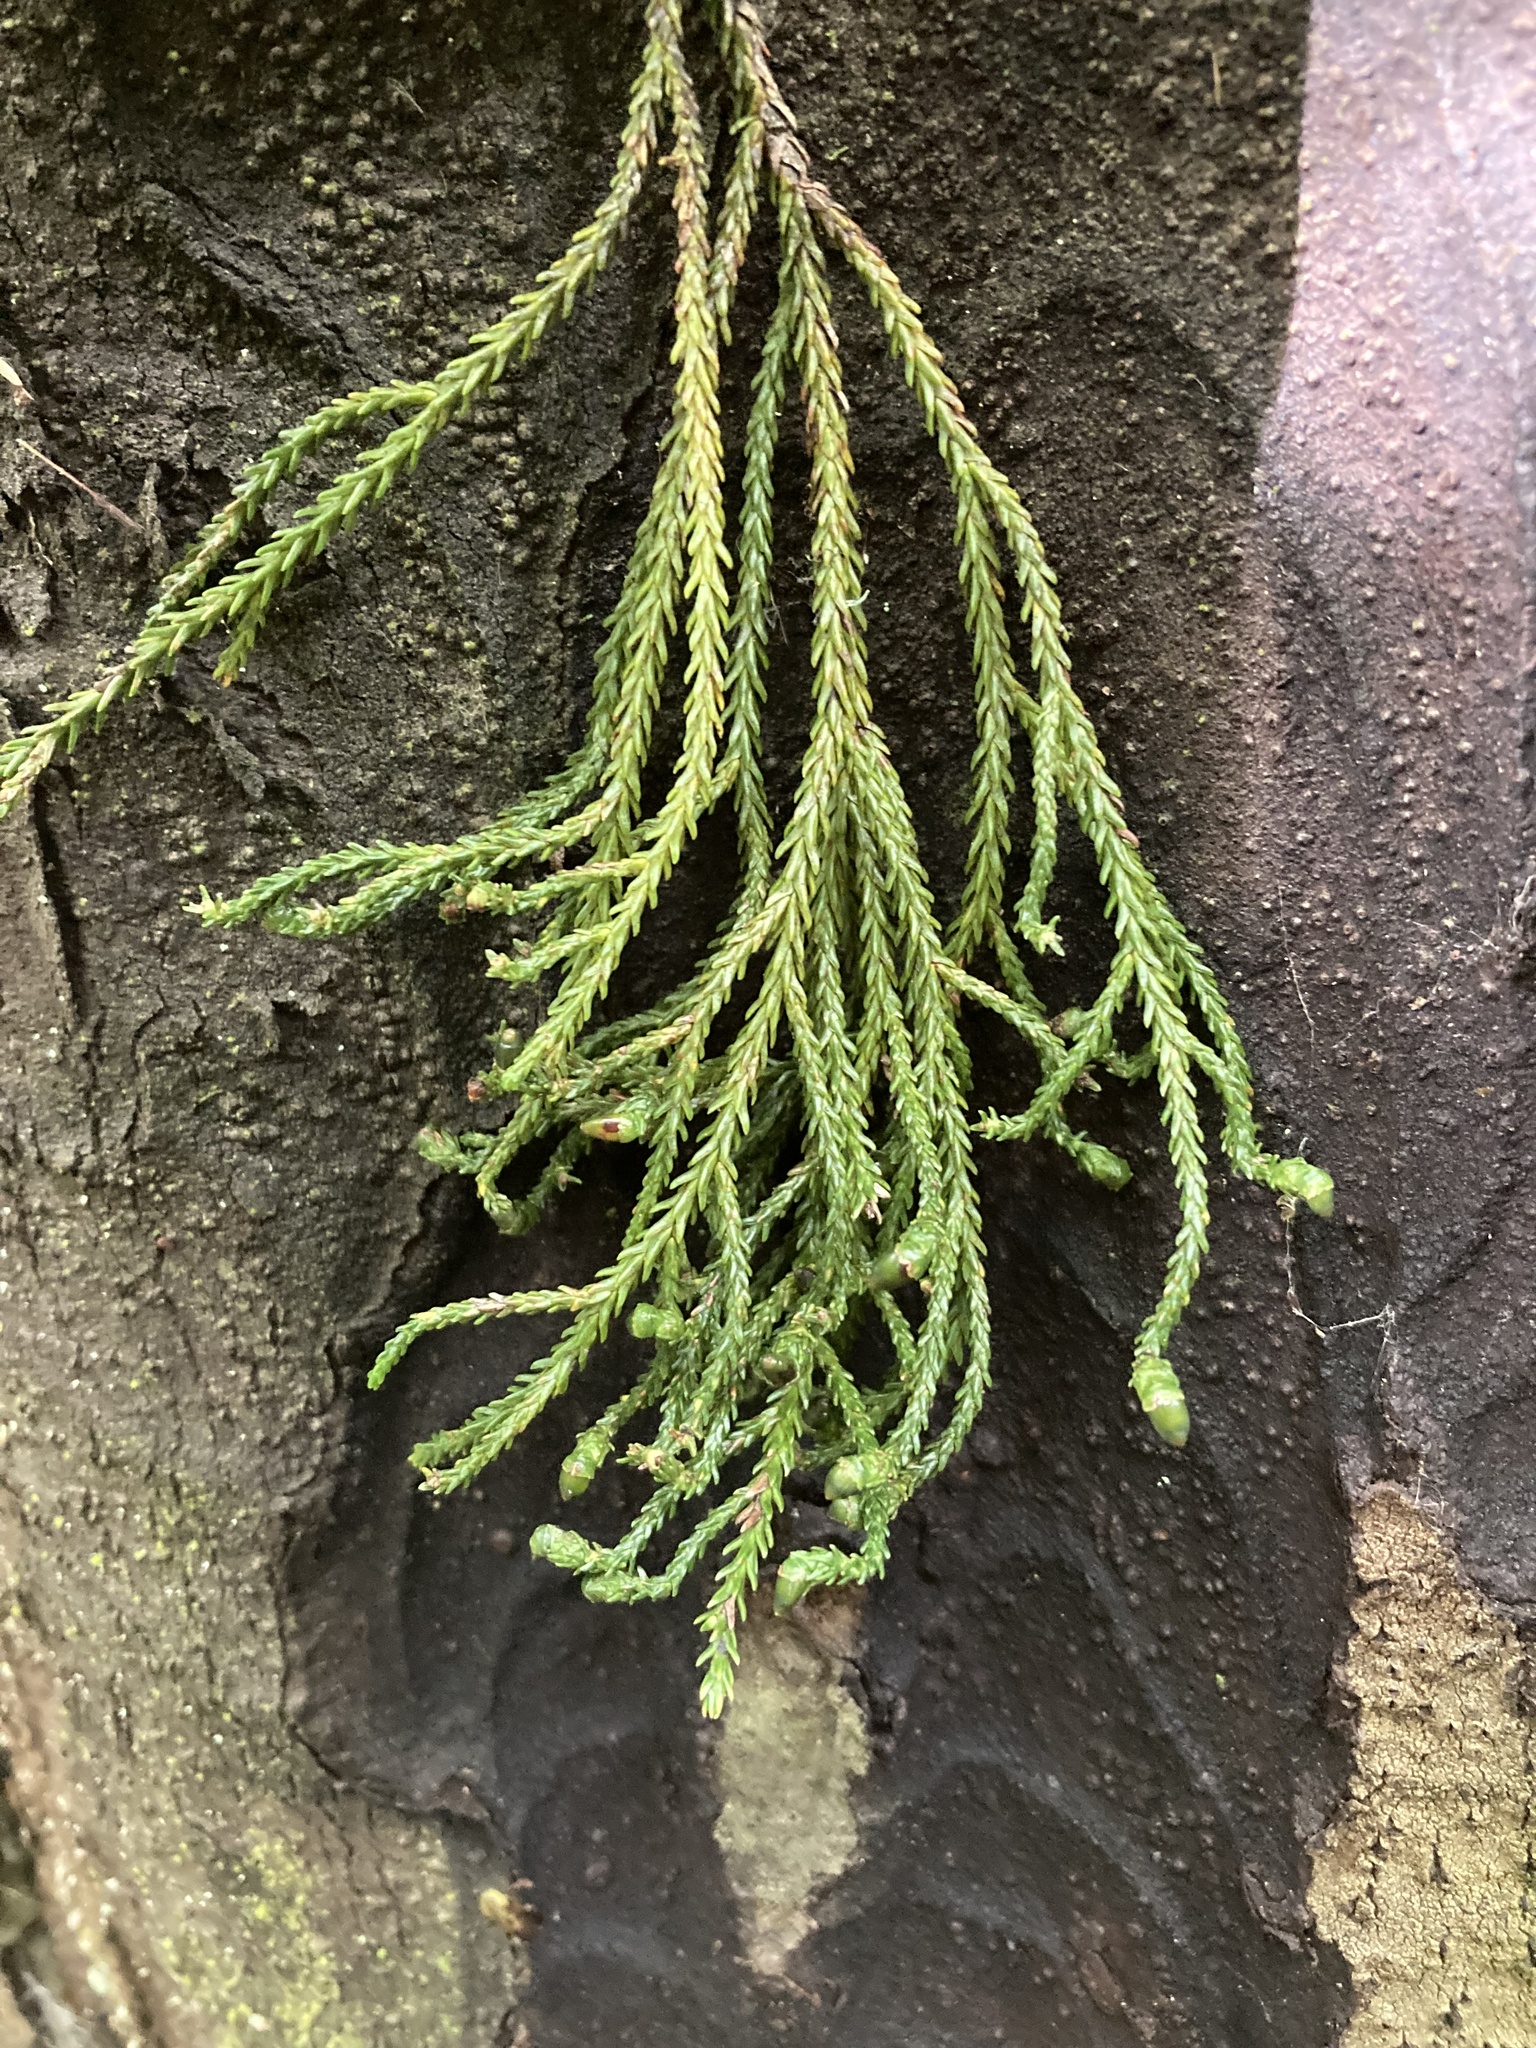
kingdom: Plantae
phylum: Tracheophyta
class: Pinopsida
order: Pinales
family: Podocarpaceae
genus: Dacrydium
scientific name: Dacrydium cupressinum
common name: Red pine
